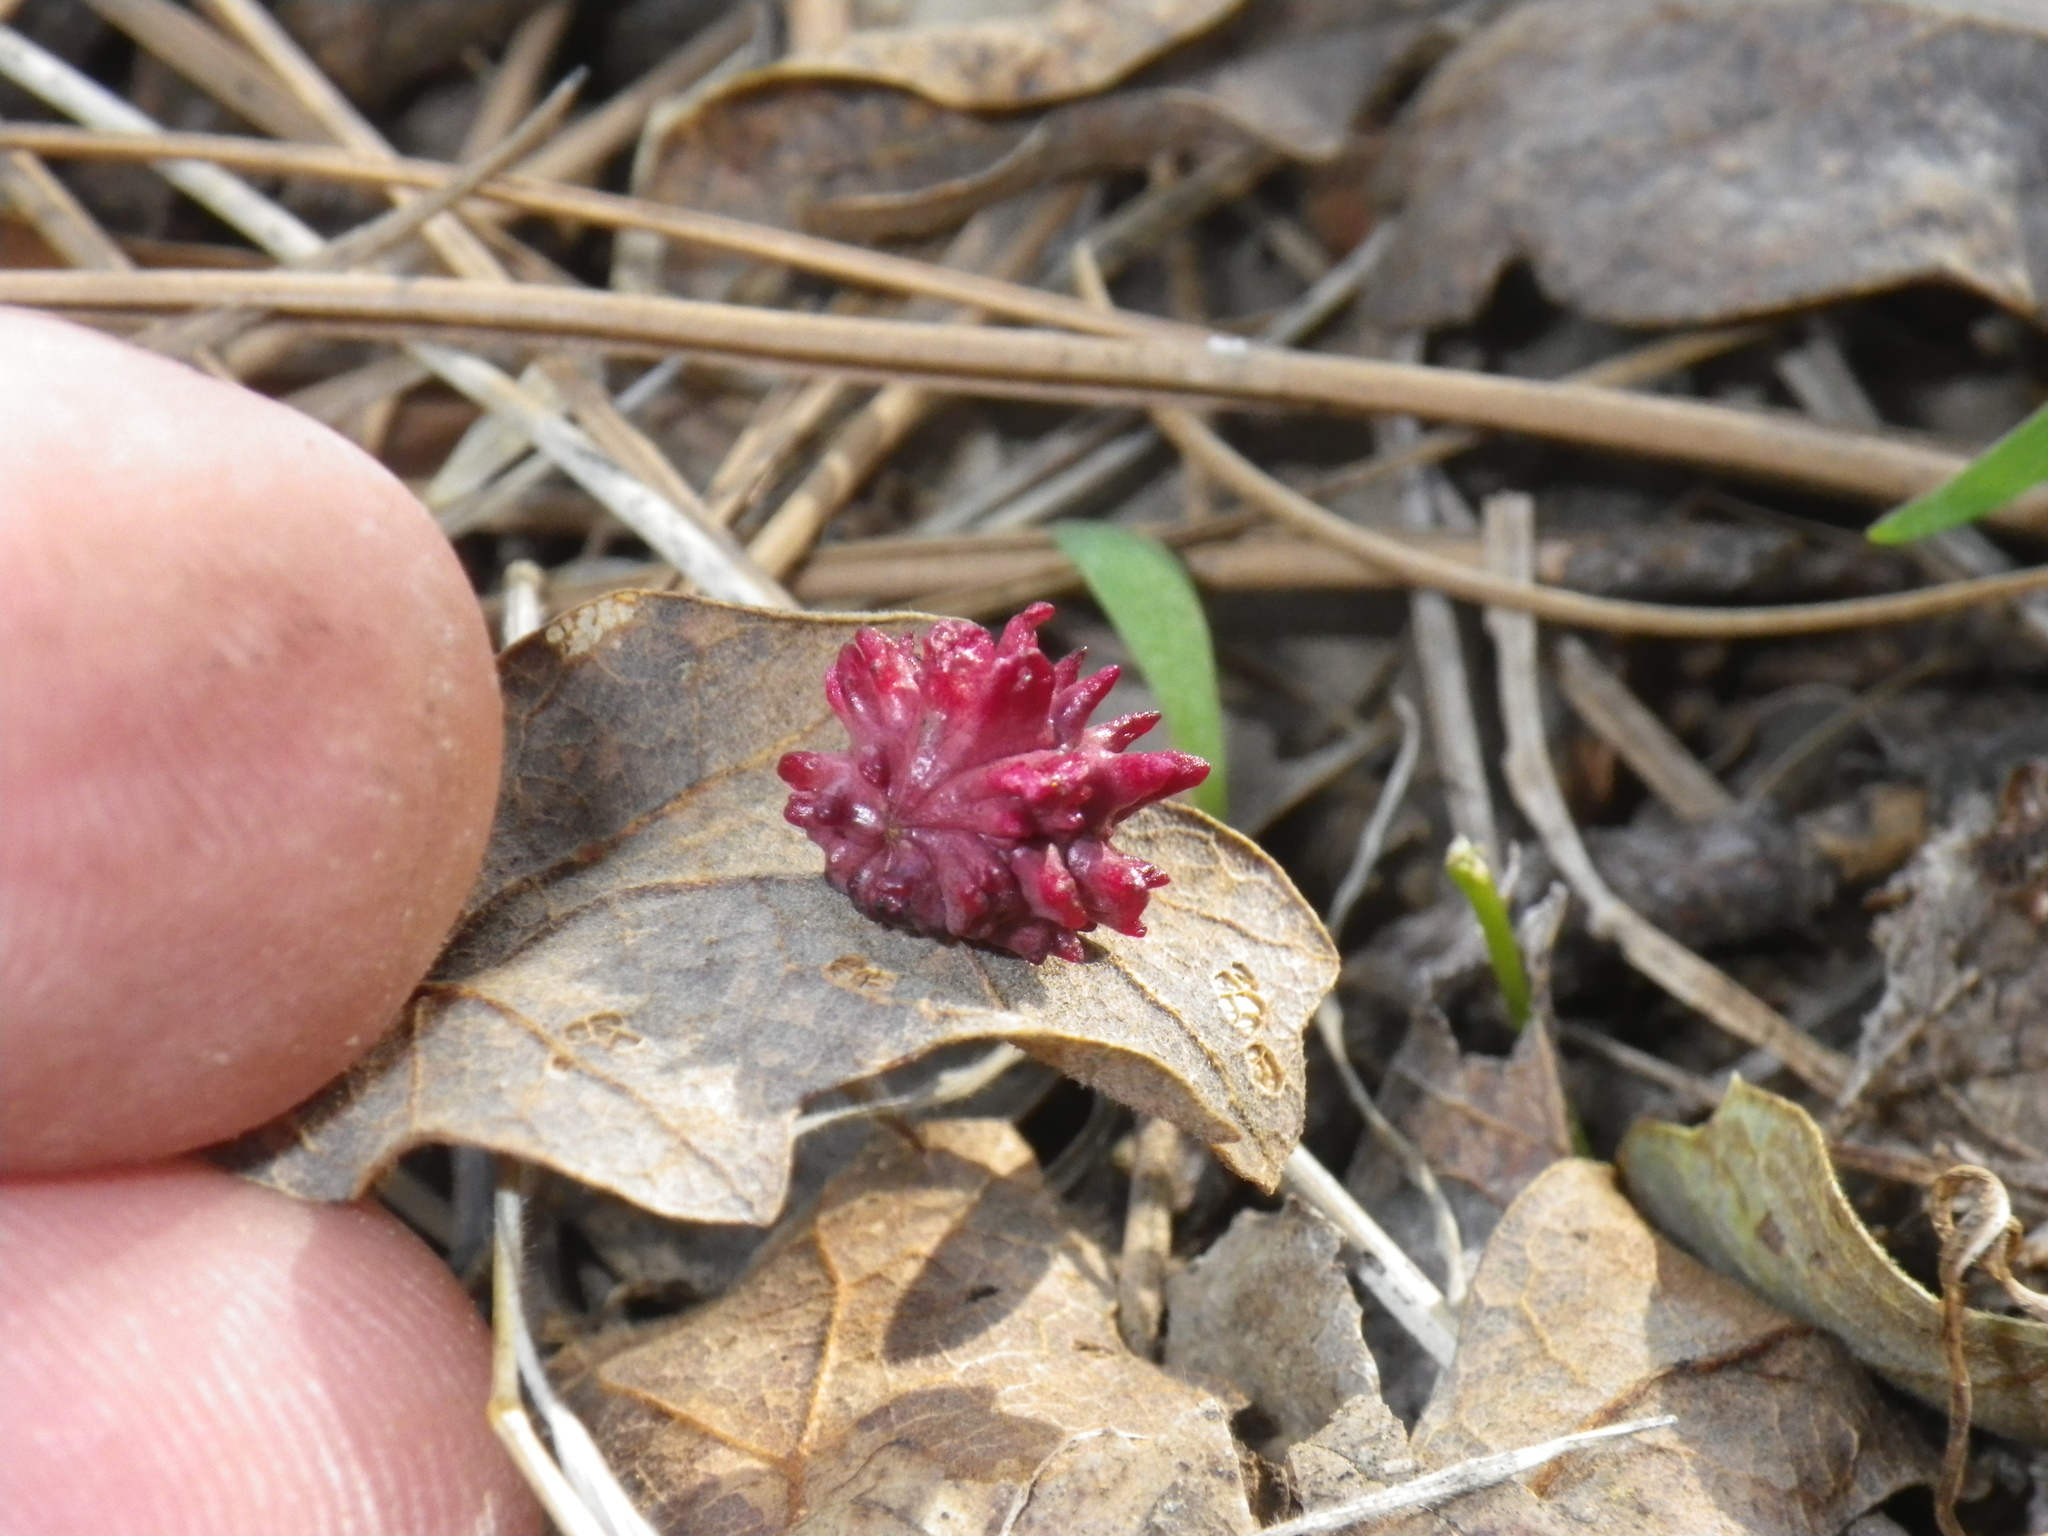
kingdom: Animalia
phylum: Arthropoda
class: Insecta
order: Hymenoptera
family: Cynipidae
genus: Cynips
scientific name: Cynips
